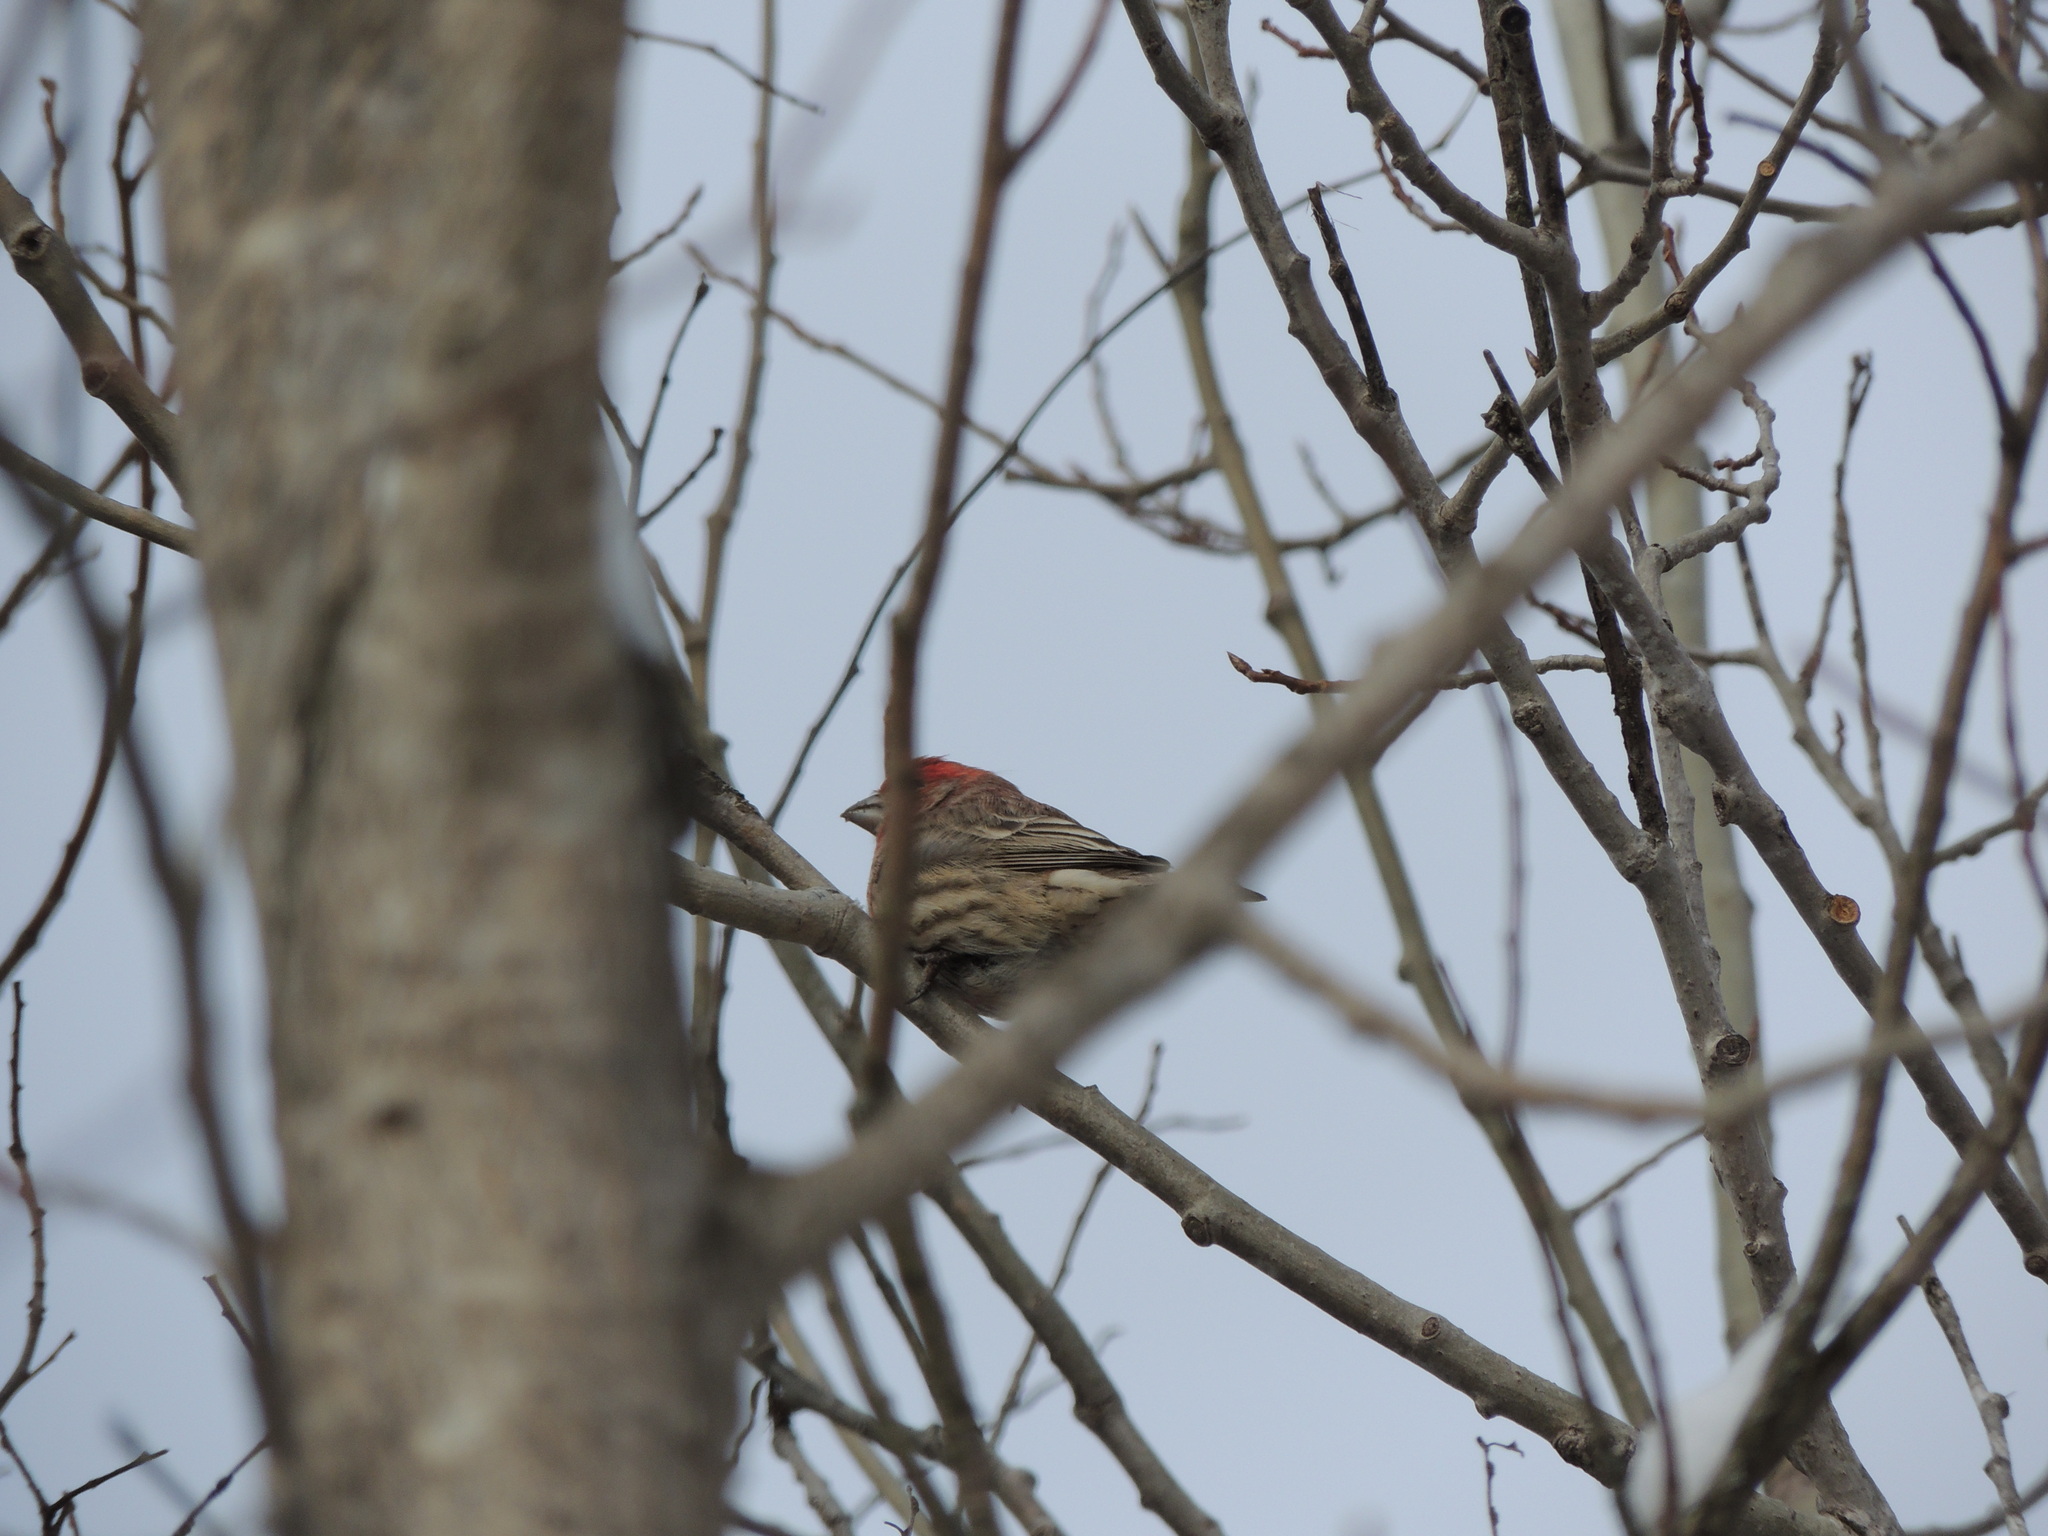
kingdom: Animalia
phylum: Chordata
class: Aves
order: Passeriformes
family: Fringillidae
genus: Haemorhous
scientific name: Haemorhous mexicanus
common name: House finch
